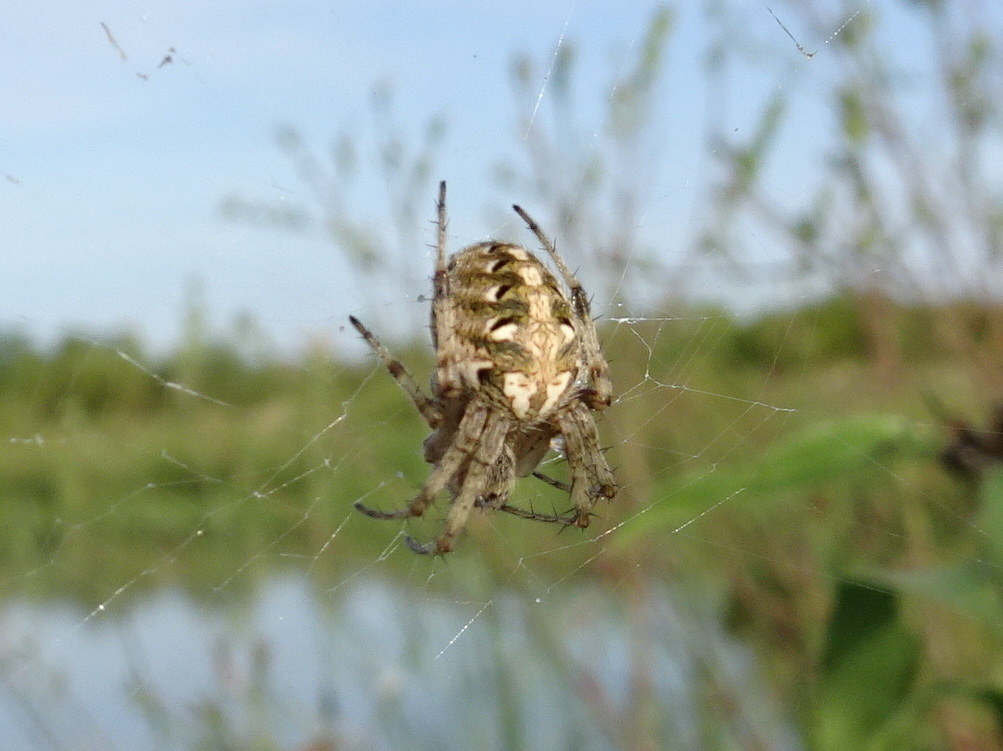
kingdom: Animalia
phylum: Arthropoda
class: Arachnida
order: Araneae
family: Araneidae
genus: Neoscona
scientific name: Neoscona arabesca
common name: Orb weavers
